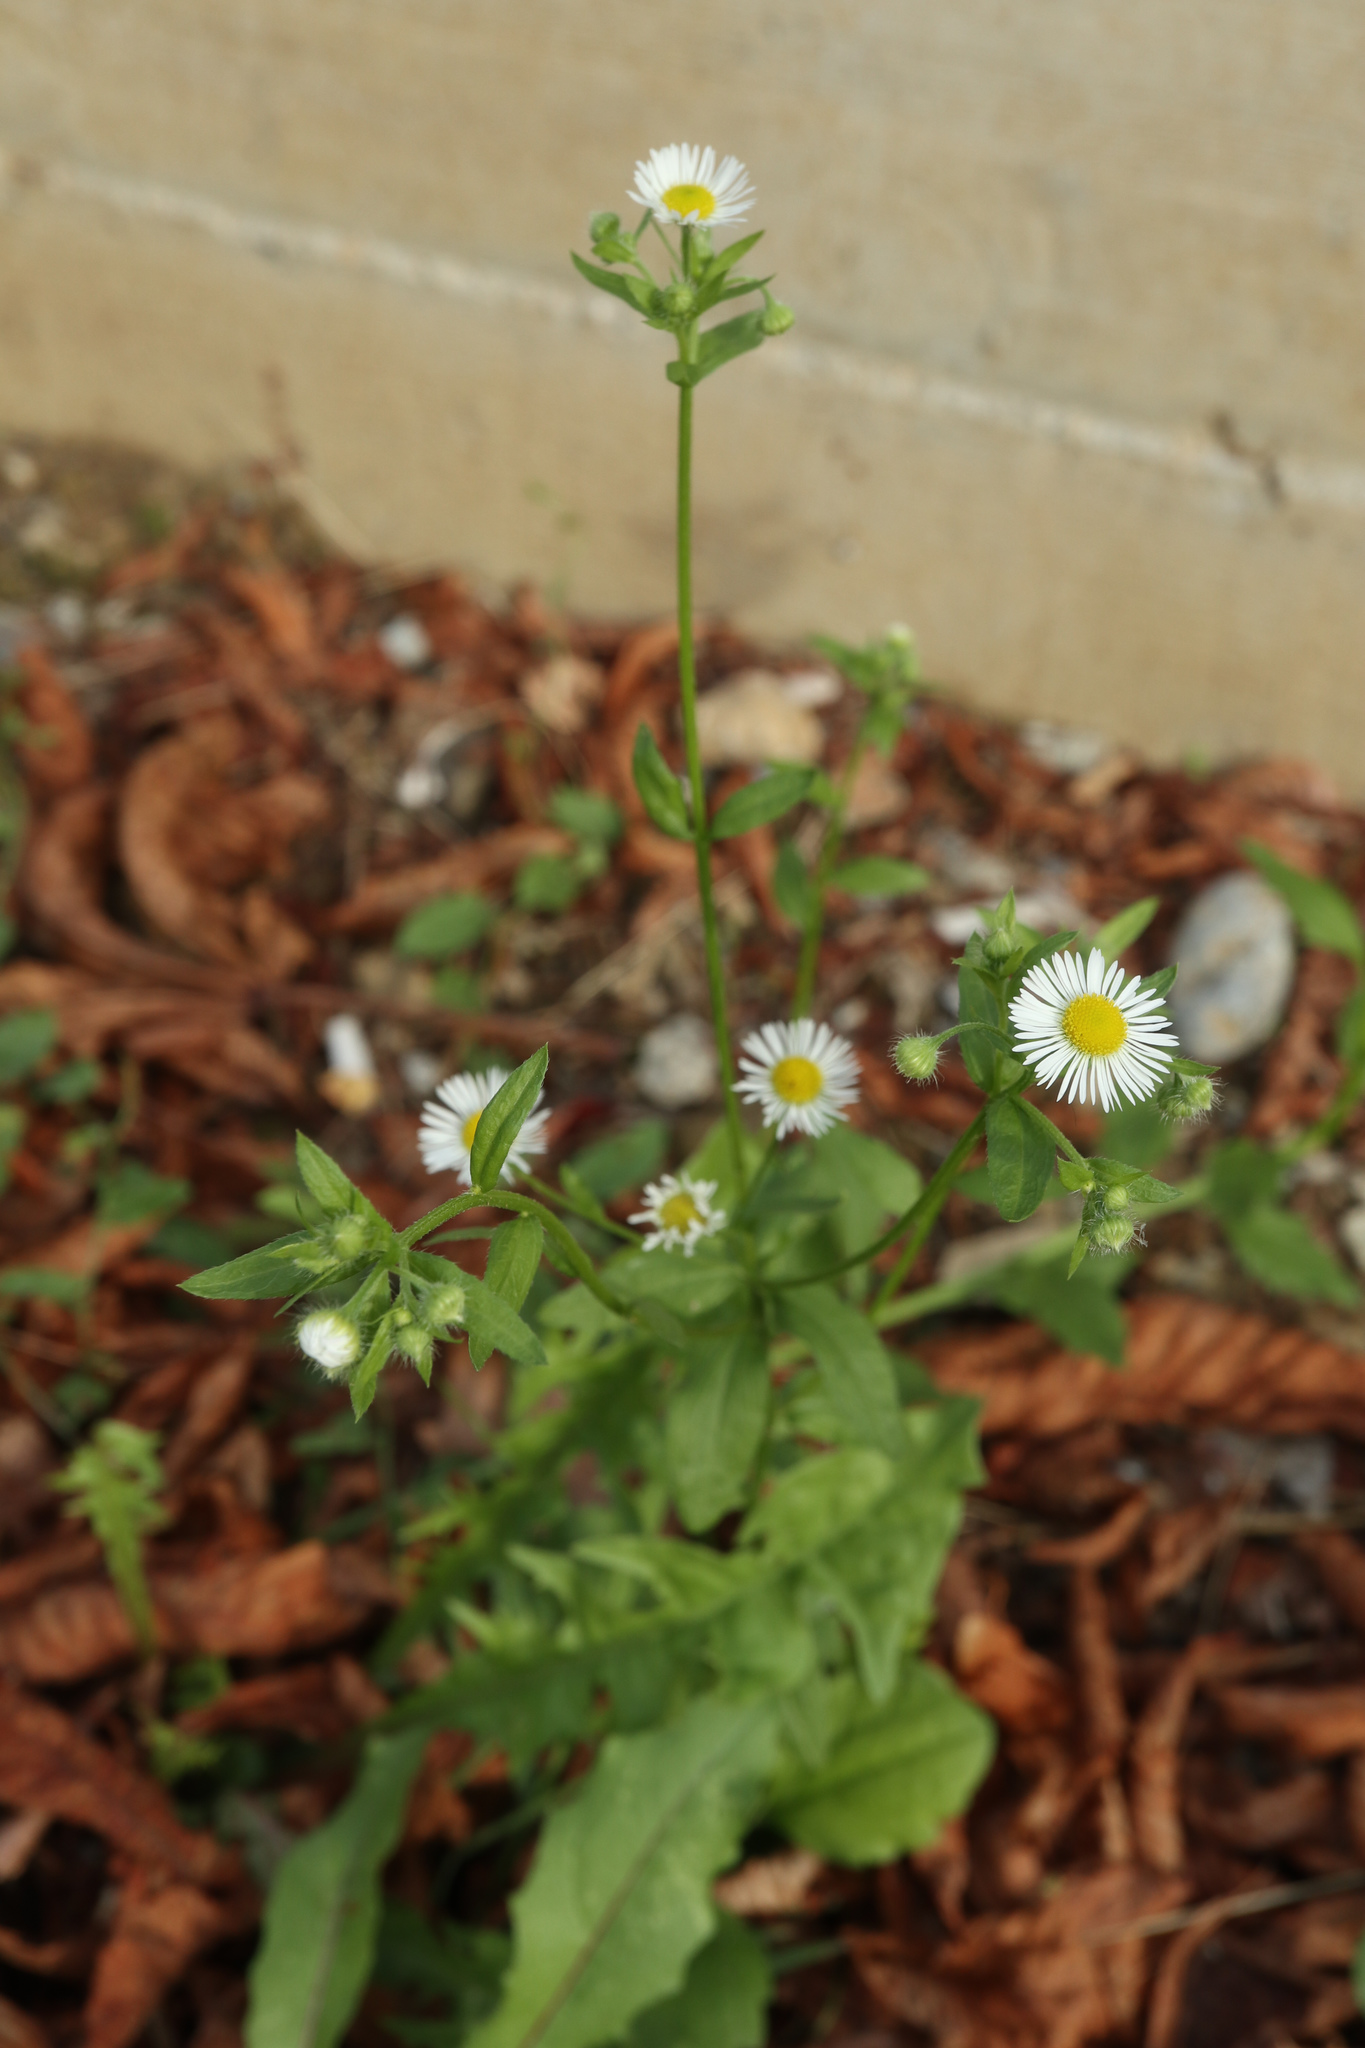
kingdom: Plantae
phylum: Tracheophyta
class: Magnoliopsida
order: Asterales
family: Asteraceae
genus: Erigeron
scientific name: Erigeron annuus
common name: Tall fleabane
